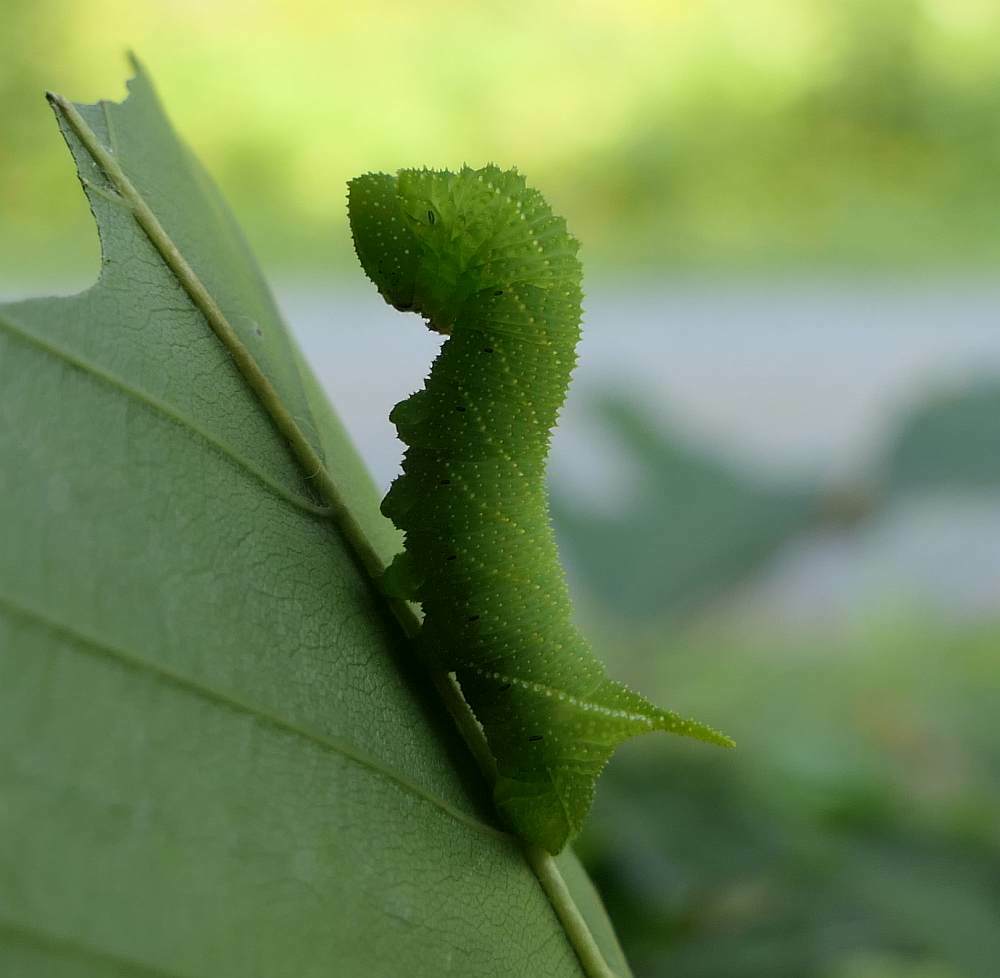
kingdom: Animalia
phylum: Arthropoda
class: Insecta
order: Lepidoptera
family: Sphingidae
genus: Paonias
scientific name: Paonias excaecata
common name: Blind-eyed sphinx
